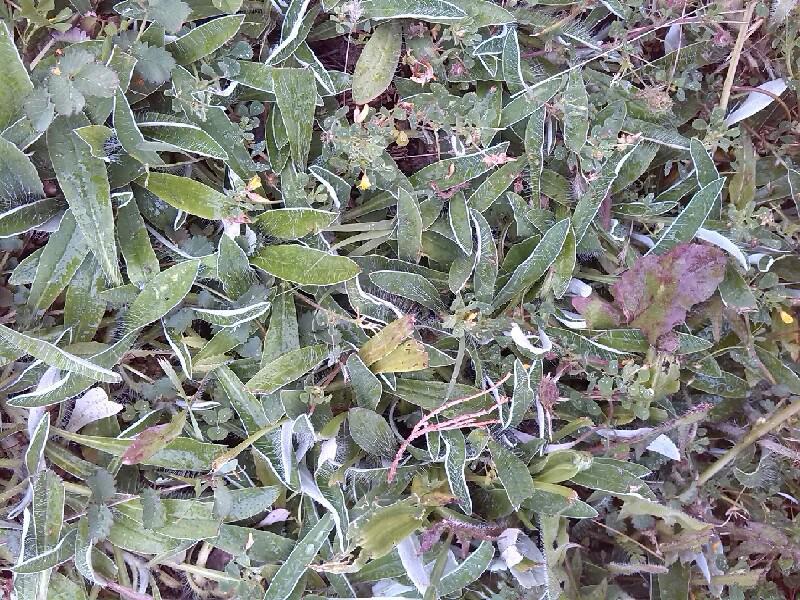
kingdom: Plantae
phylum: Tracheophyta
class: Magnoliopsida
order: Asterales
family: Asteraceae
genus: Pilosella
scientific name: Pilosella officinarum
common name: Mouse-ear hawkweed
